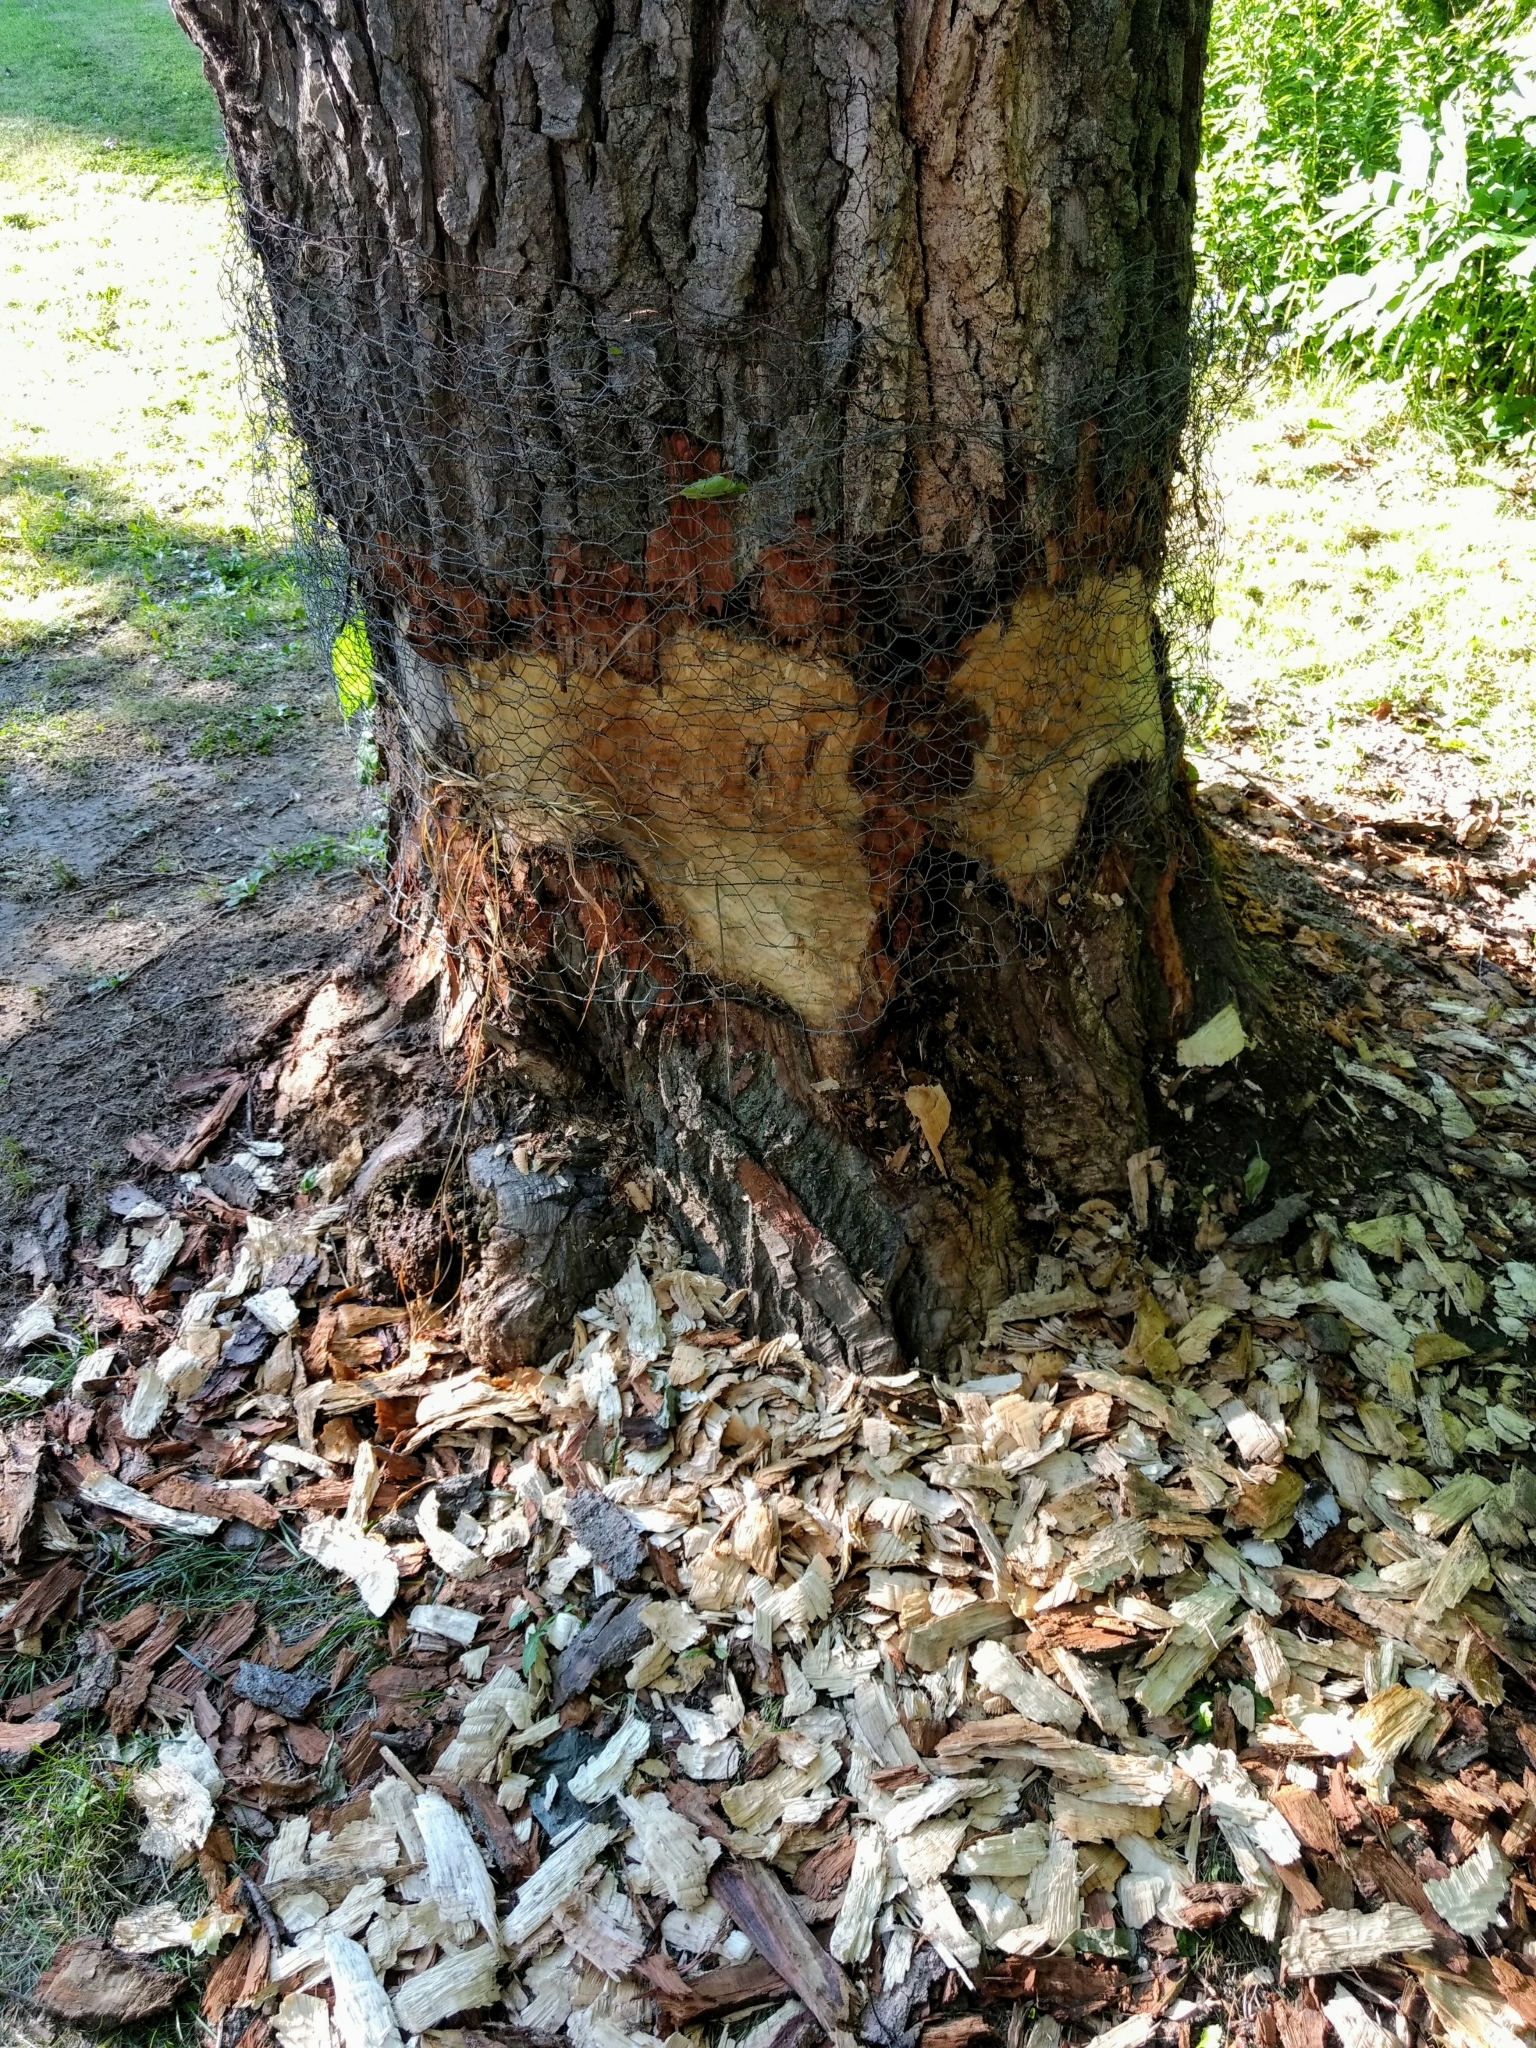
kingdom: Animalia
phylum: Chordata
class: Mammalia
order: Rodentia
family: Castoridae
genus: Castor
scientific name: Castor canadensis
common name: American beaver
